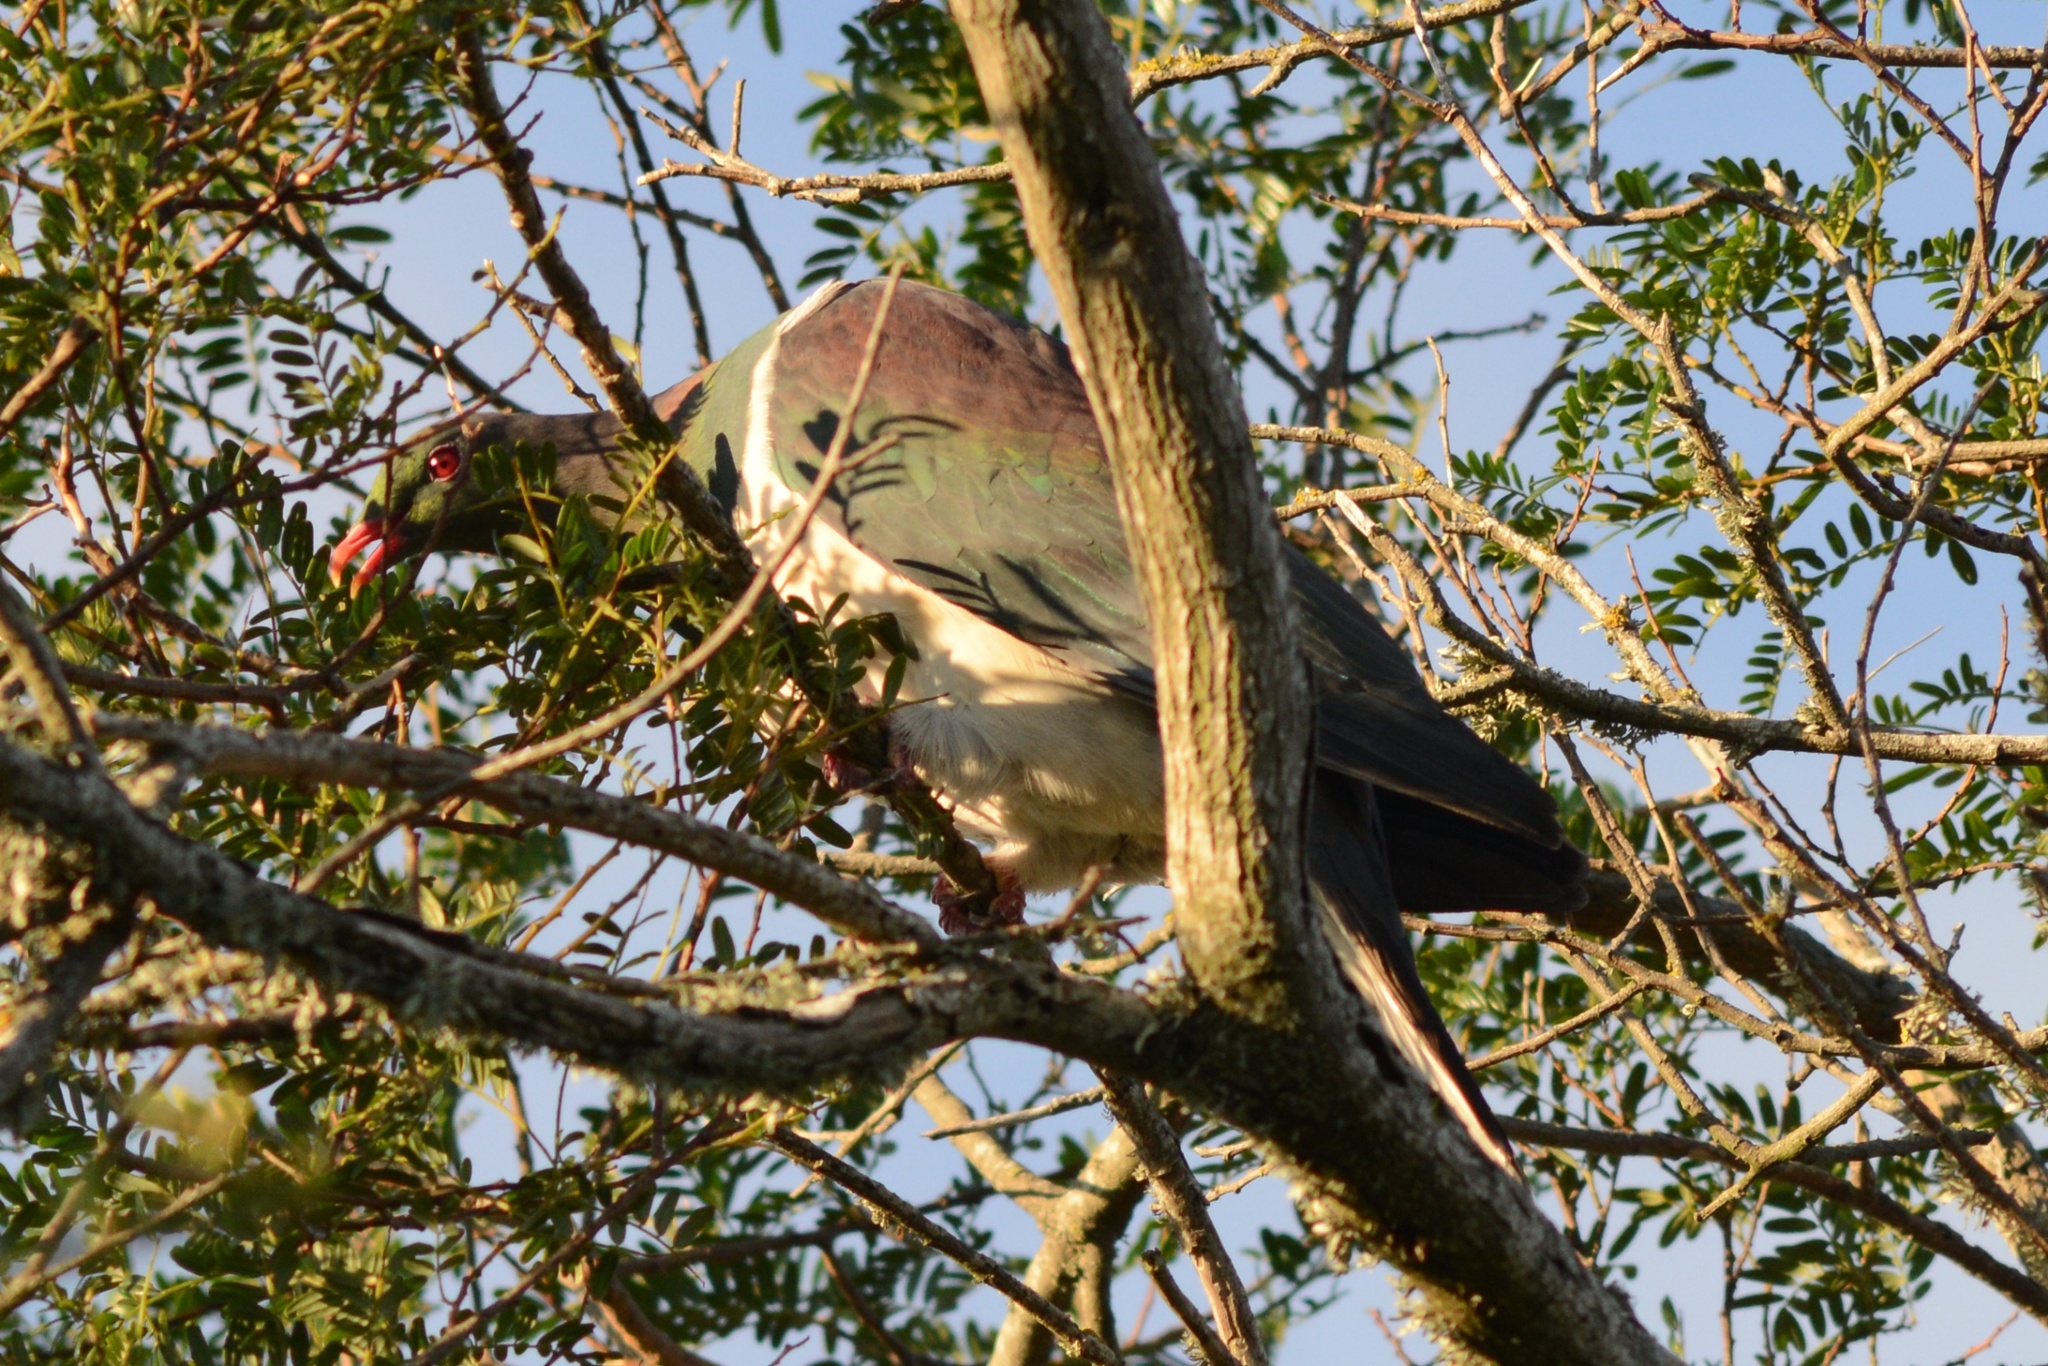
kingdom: Animalia
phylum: Chordata
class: Aves
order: Columbiformes
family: Columbidae
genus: Hemiphaga
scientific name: Hemiphaga novaeseelandiae
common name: New zealand pigeon
